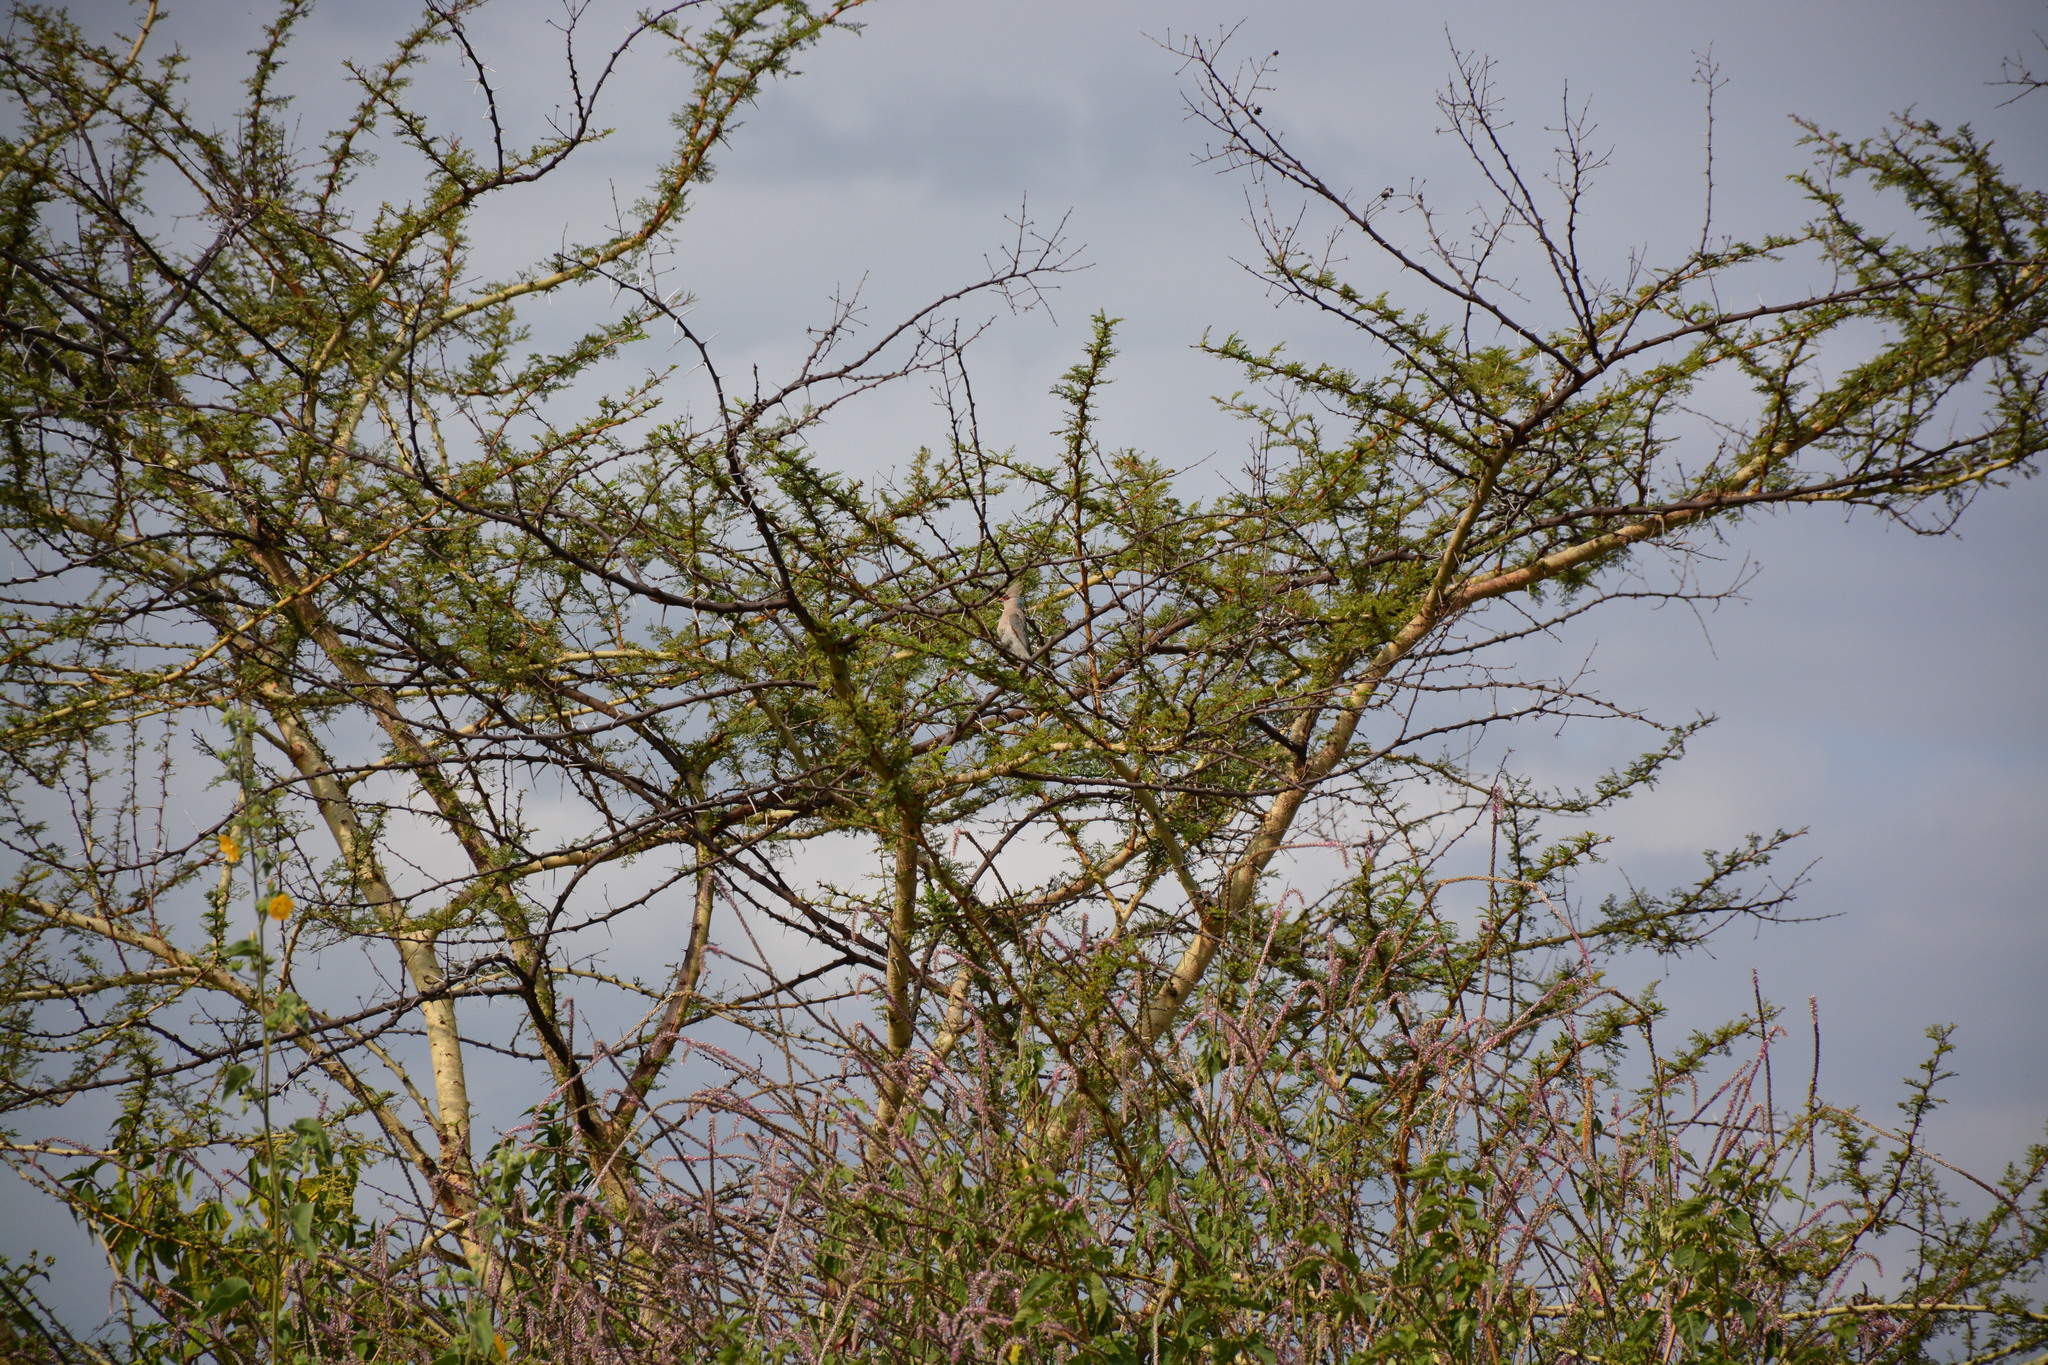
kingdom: Animalia
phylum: Chordata
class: Aves
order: Coliiformes
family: Coliidae
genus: Urocolius
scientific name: Urocolius macrourus
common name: Blue-naped mousebird
